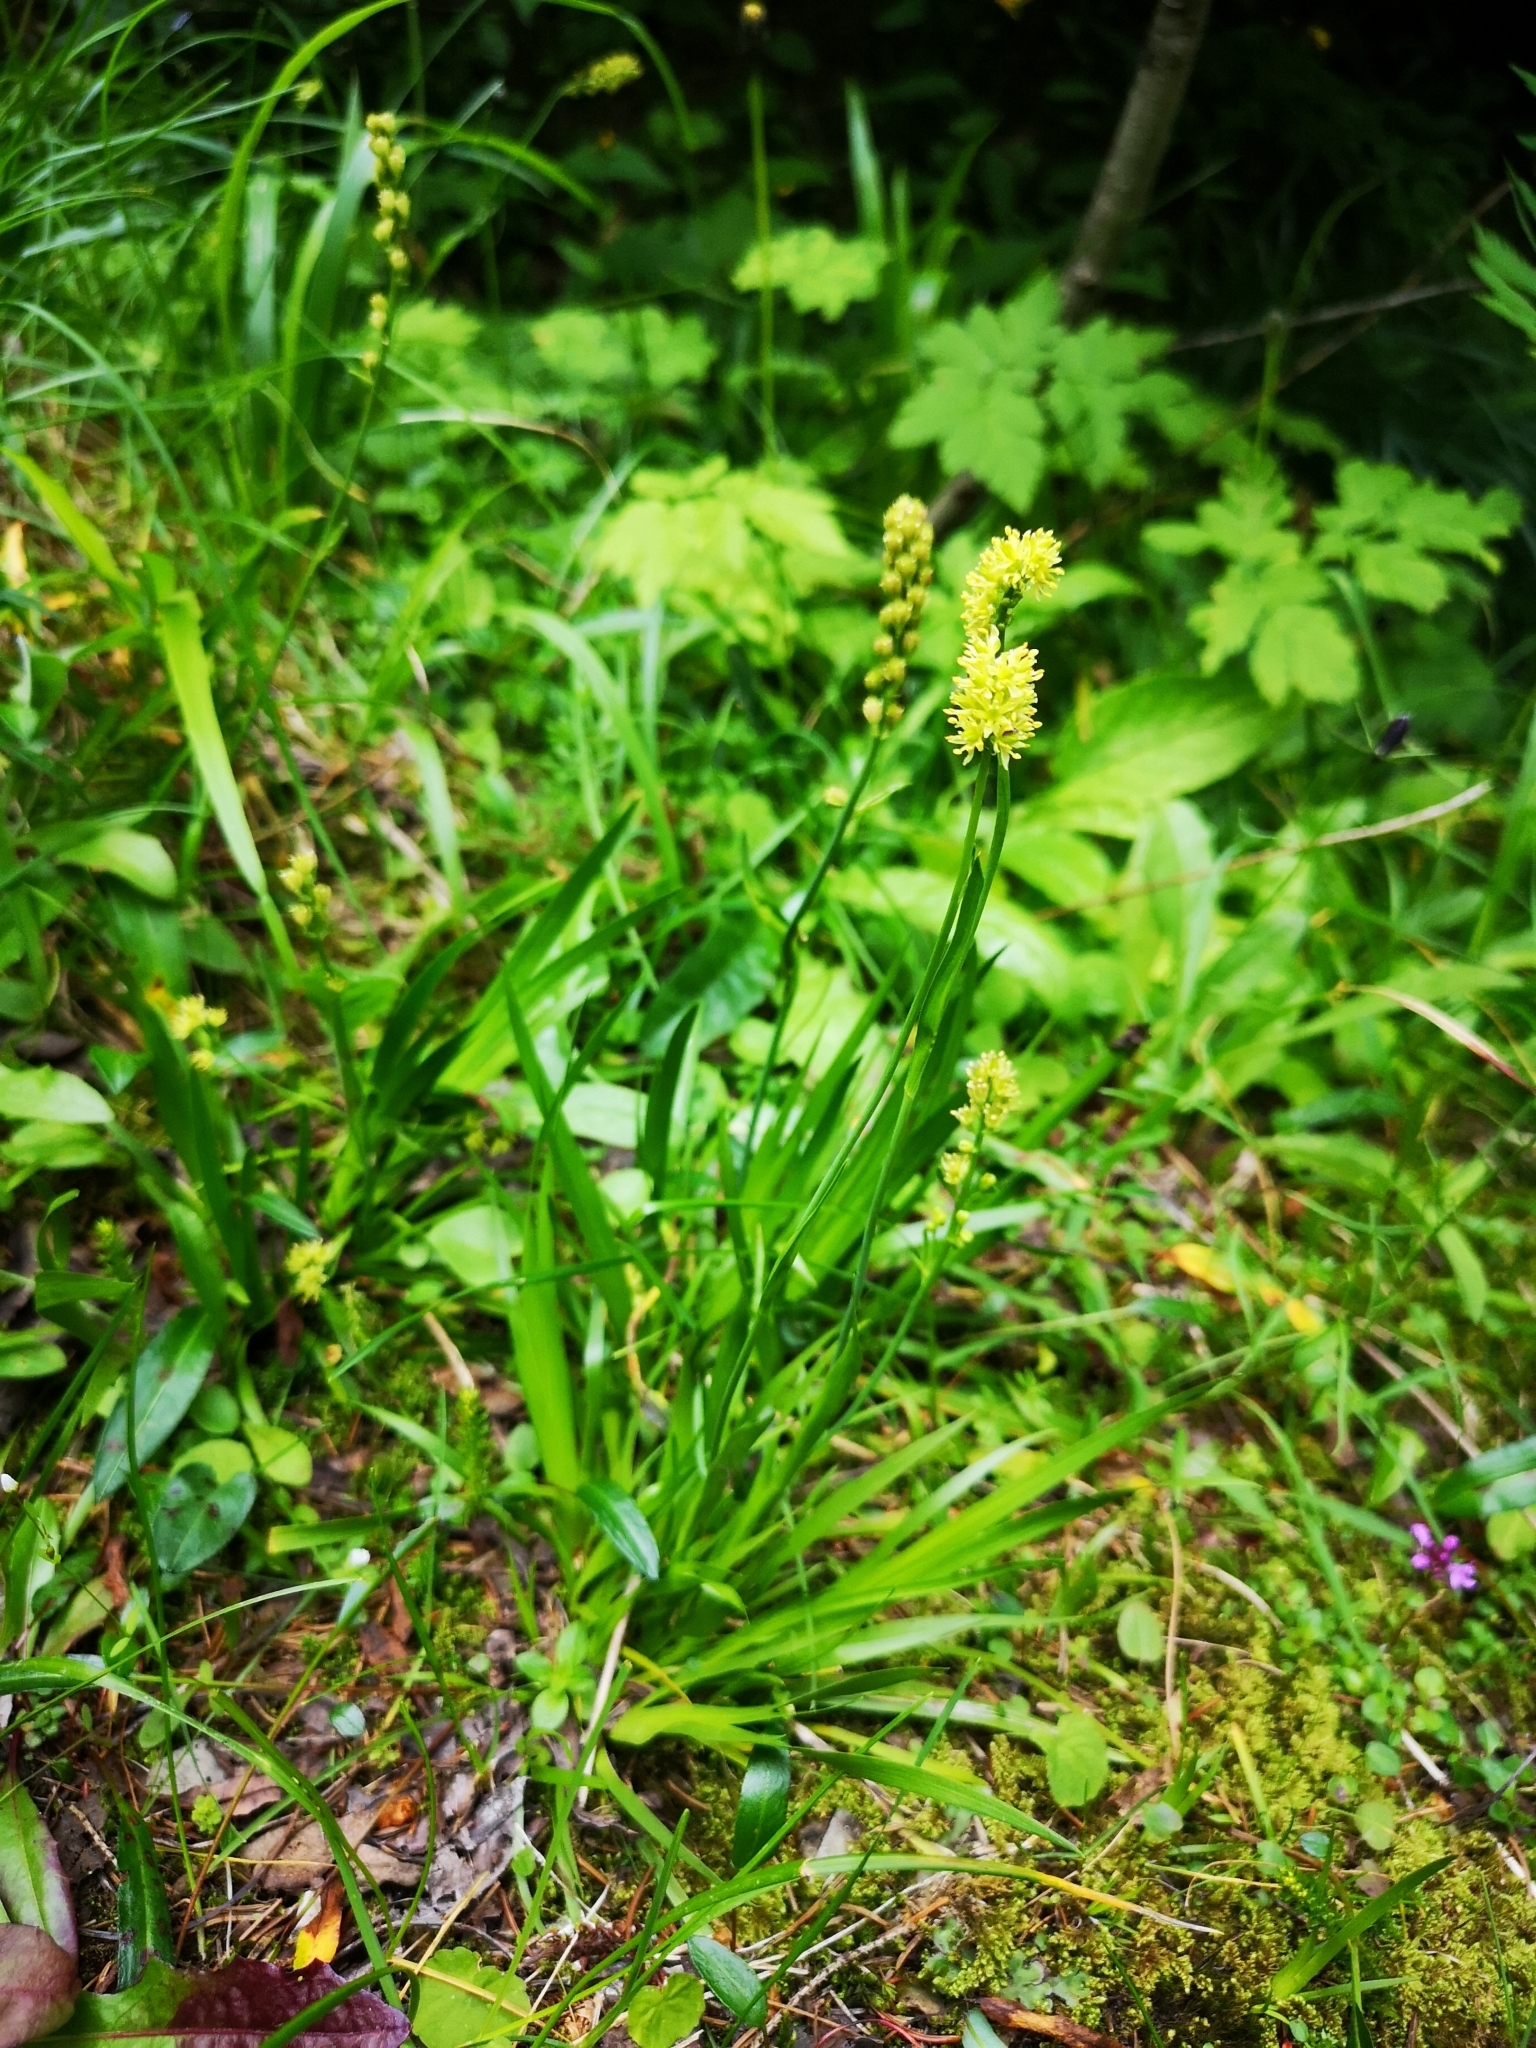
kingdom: Plantae
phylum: Tracheophyta
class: Liliopsida
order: Alismatales
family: Tofieldiaceae
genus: Tofieldia
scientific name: Tofieldia calyculata
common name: German-asphodel
